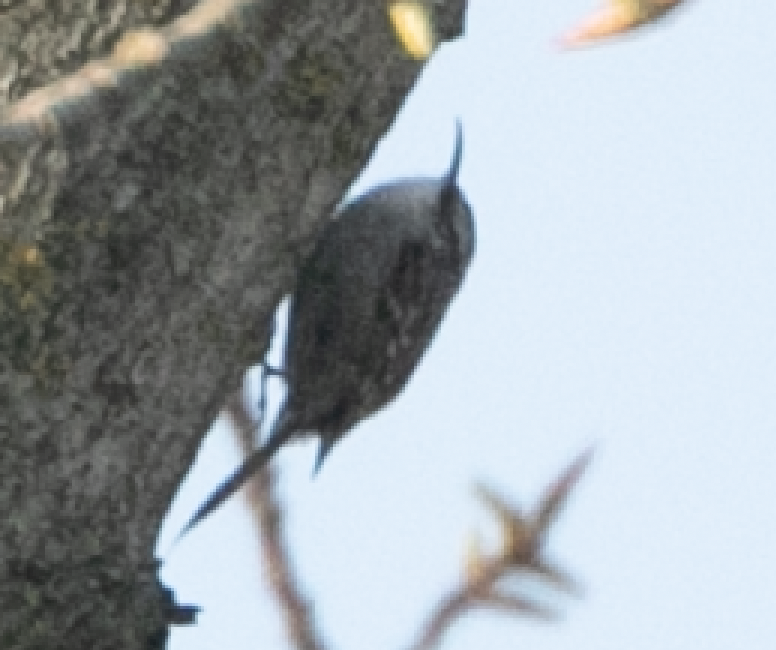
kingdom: Animalia
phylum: Chordata
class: Aves
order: Passeriformes
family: Certhiidae
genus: Certhia
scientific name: Certhia brachydactyla
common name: Short-toed treecreeper
